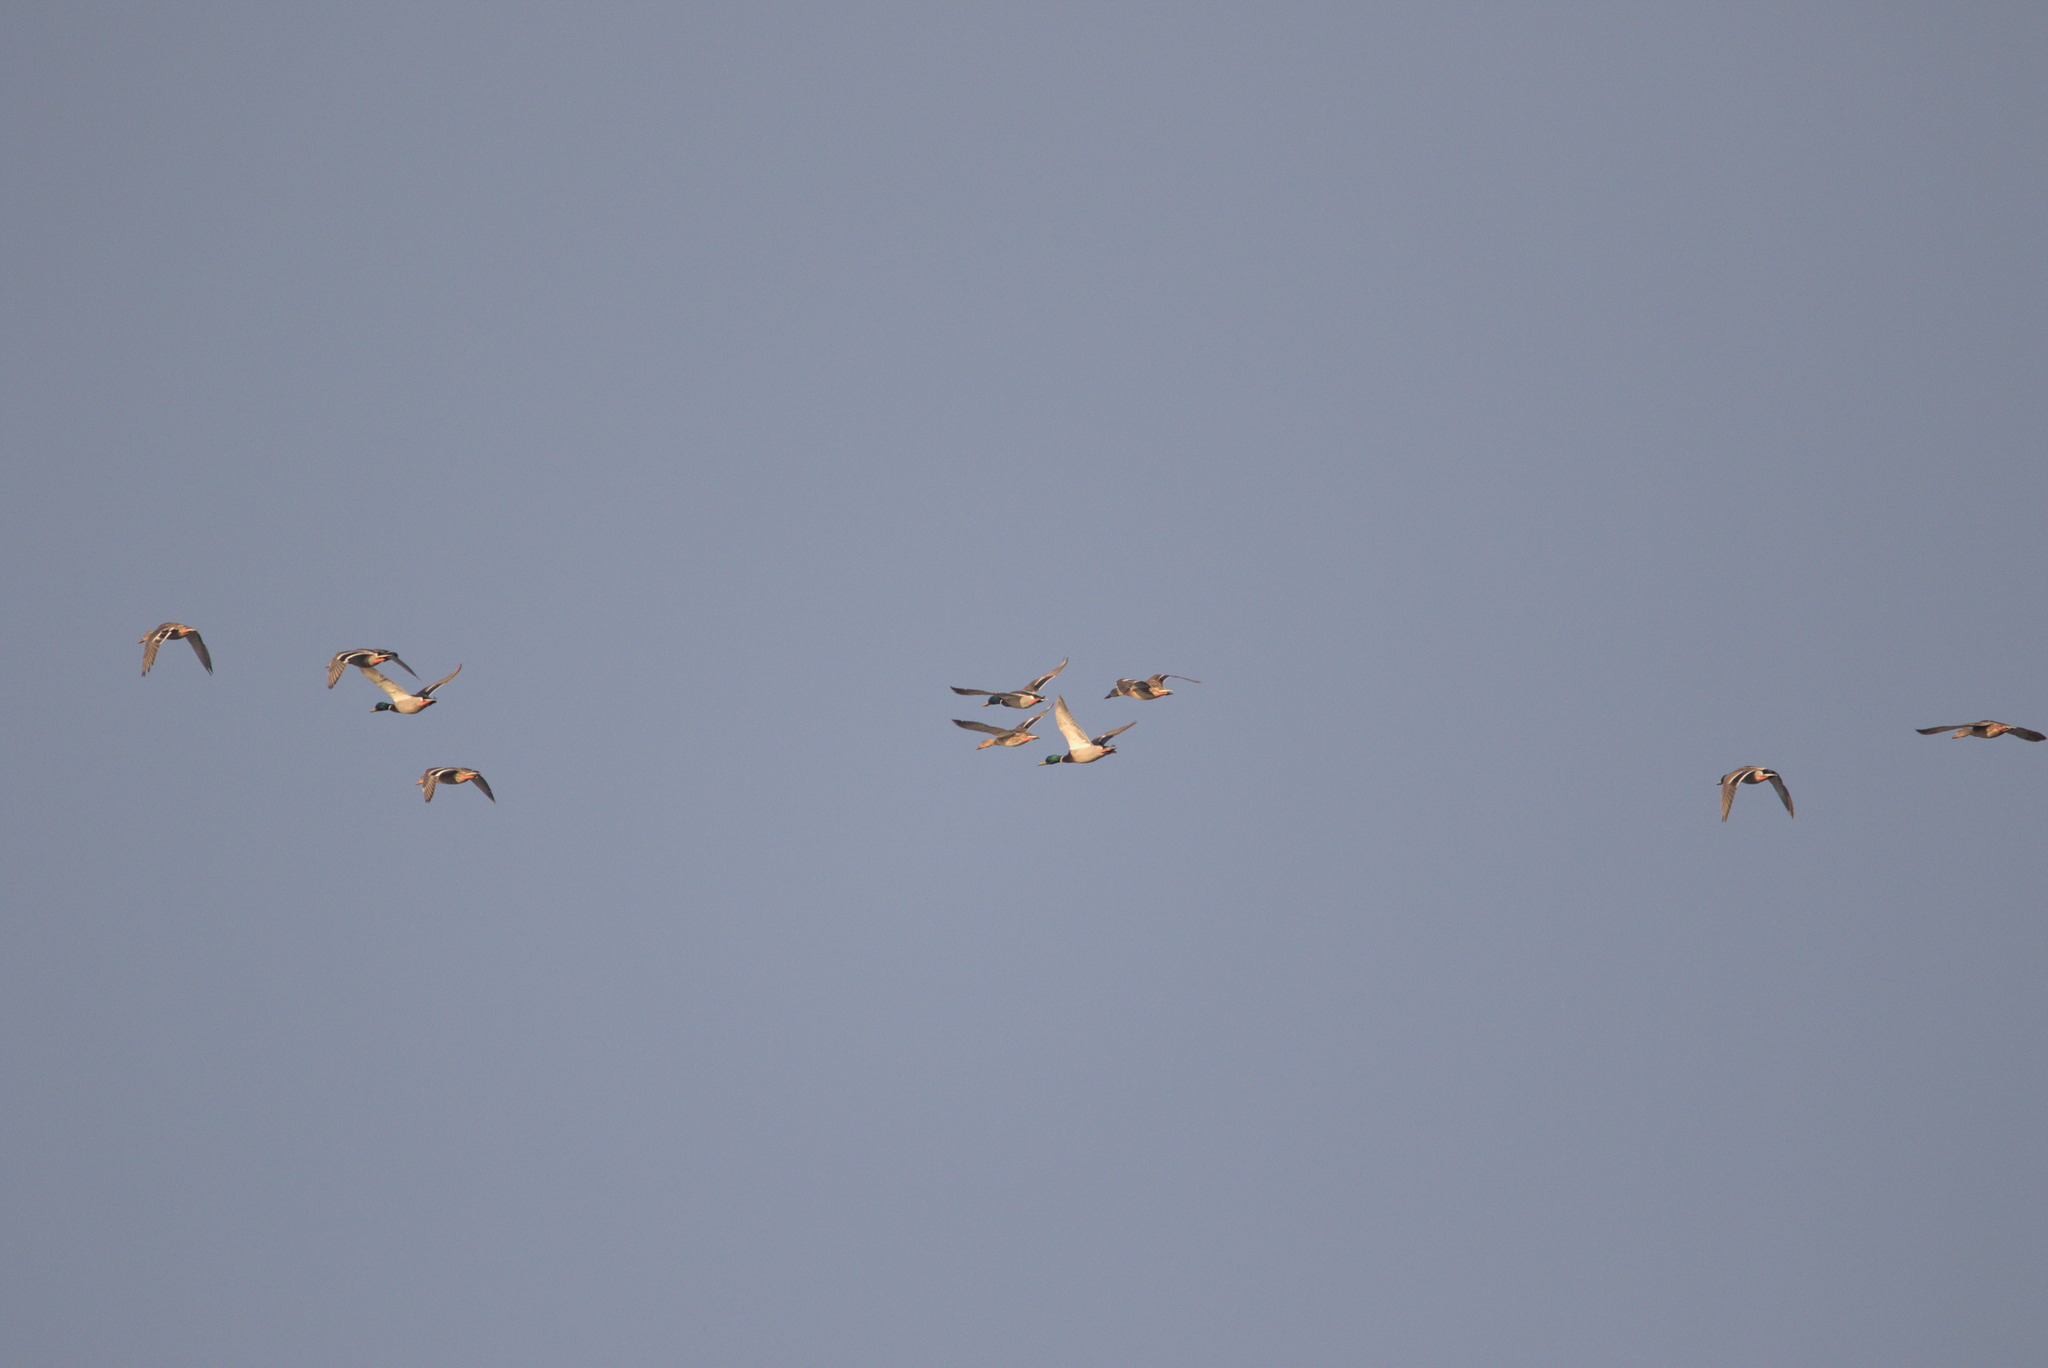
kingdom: Animalia
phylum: Chordata
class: Aves
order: Anseriformes
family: Anatidae
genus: Anas
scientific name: Anas platyrhynchos
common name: Mallard
